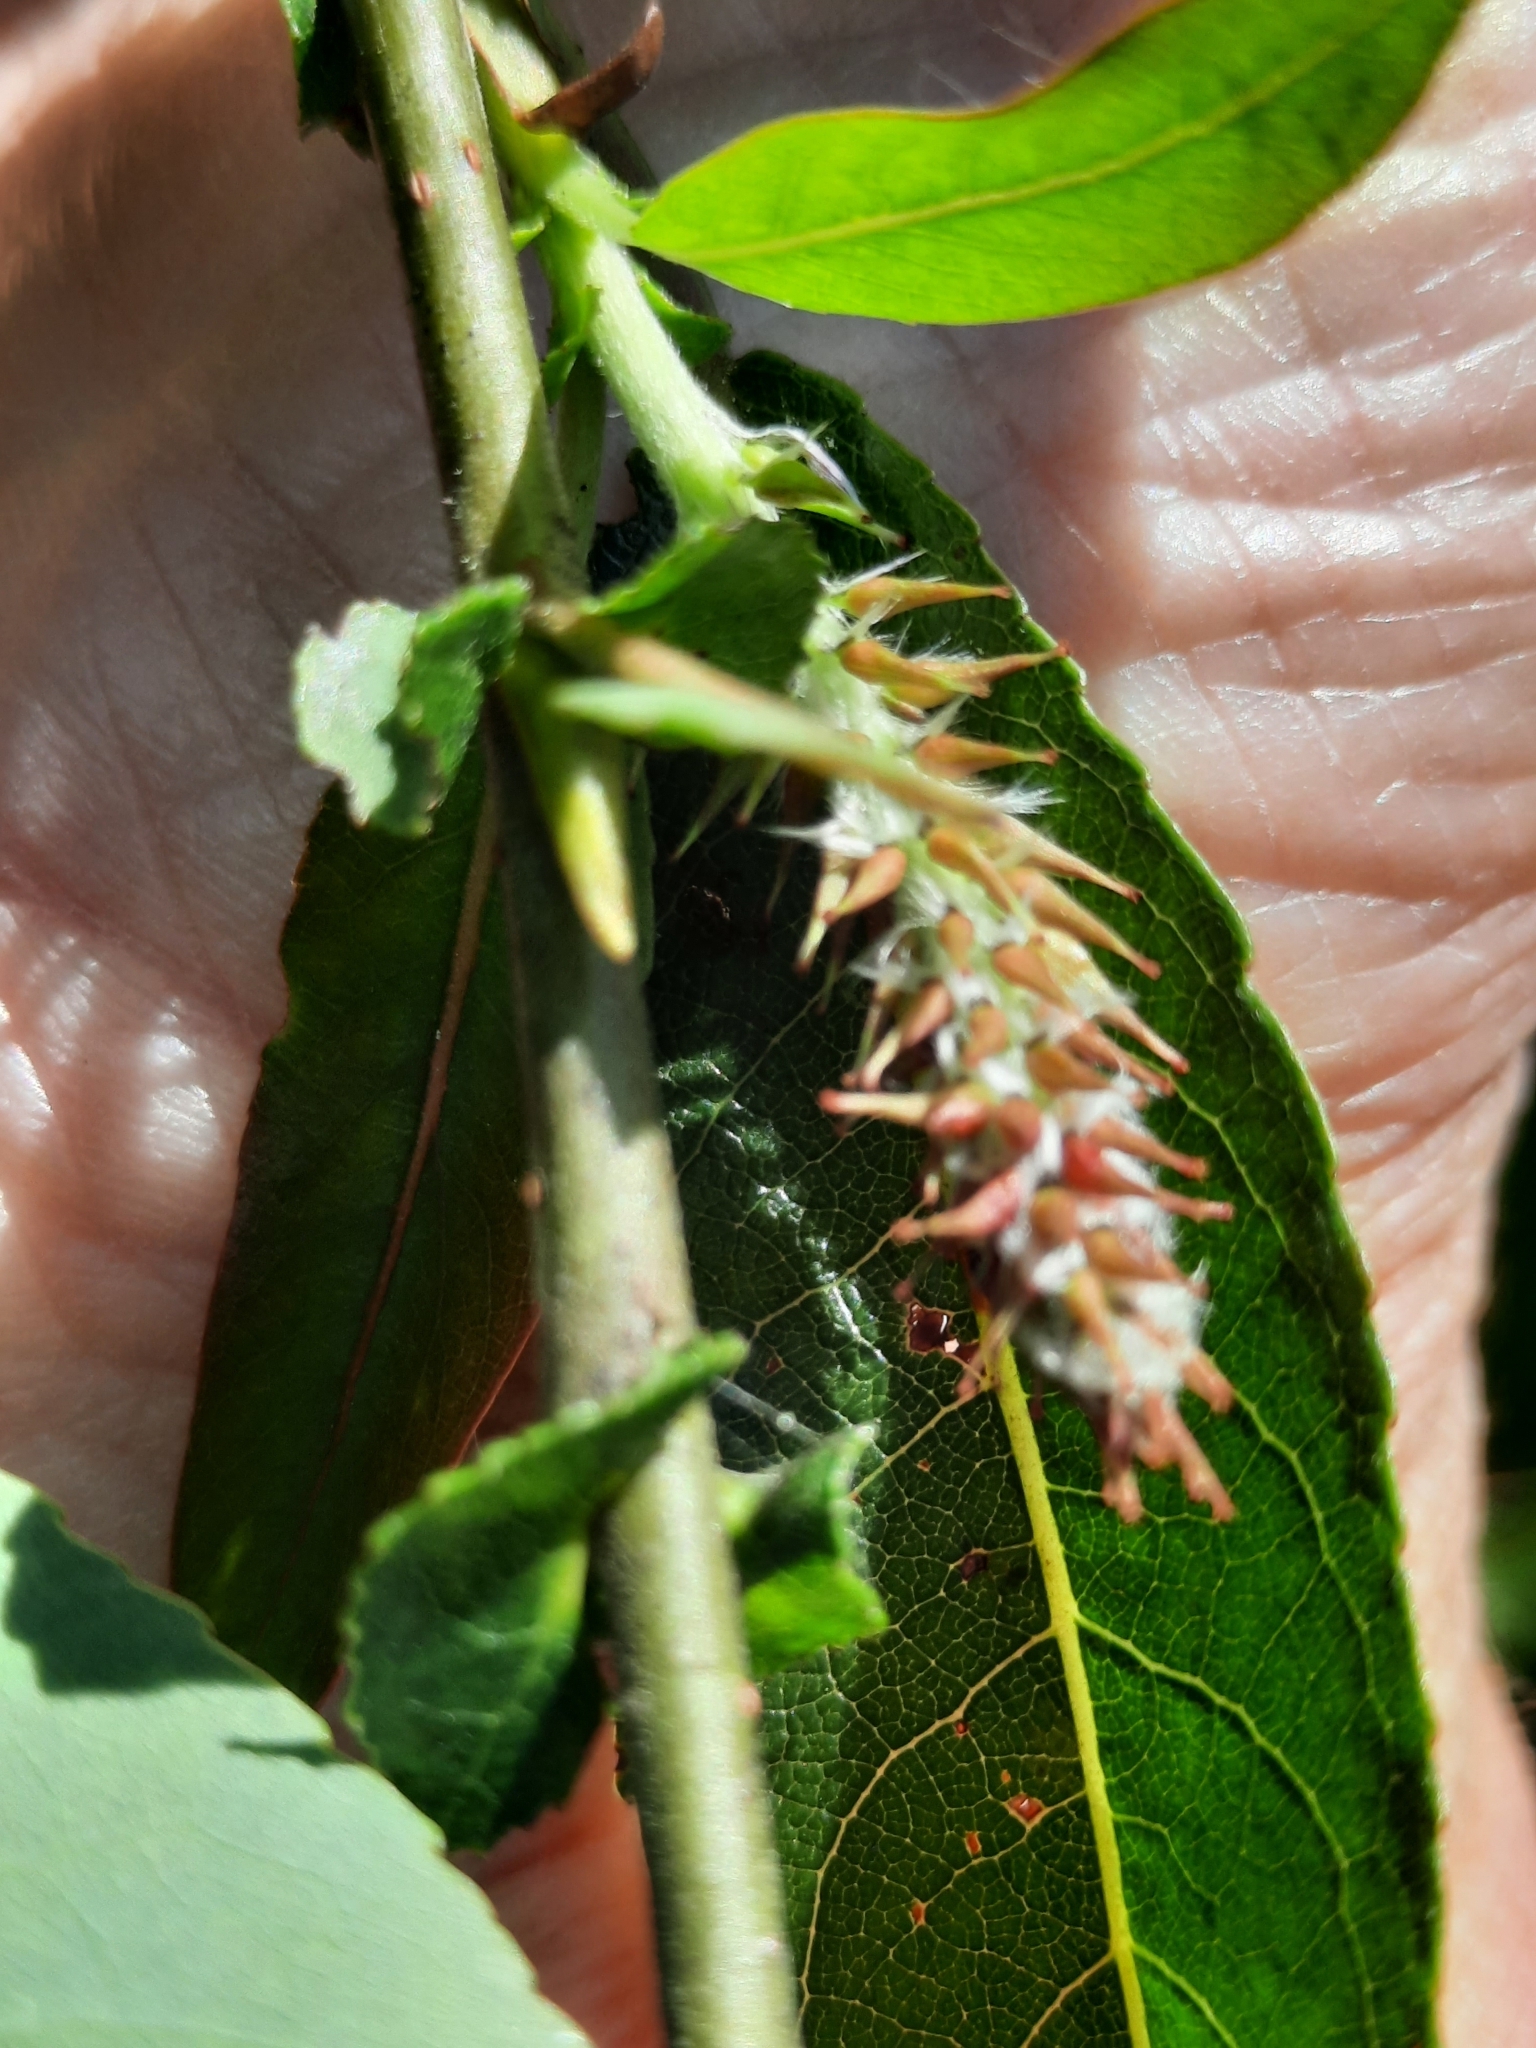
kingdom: Plantae
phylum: Tracheophyta
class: Magnoliopsida
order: Malpighiales
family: Salicaceae
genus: Salix
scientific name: Salix eriocephala
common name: Heart-leaved willow
